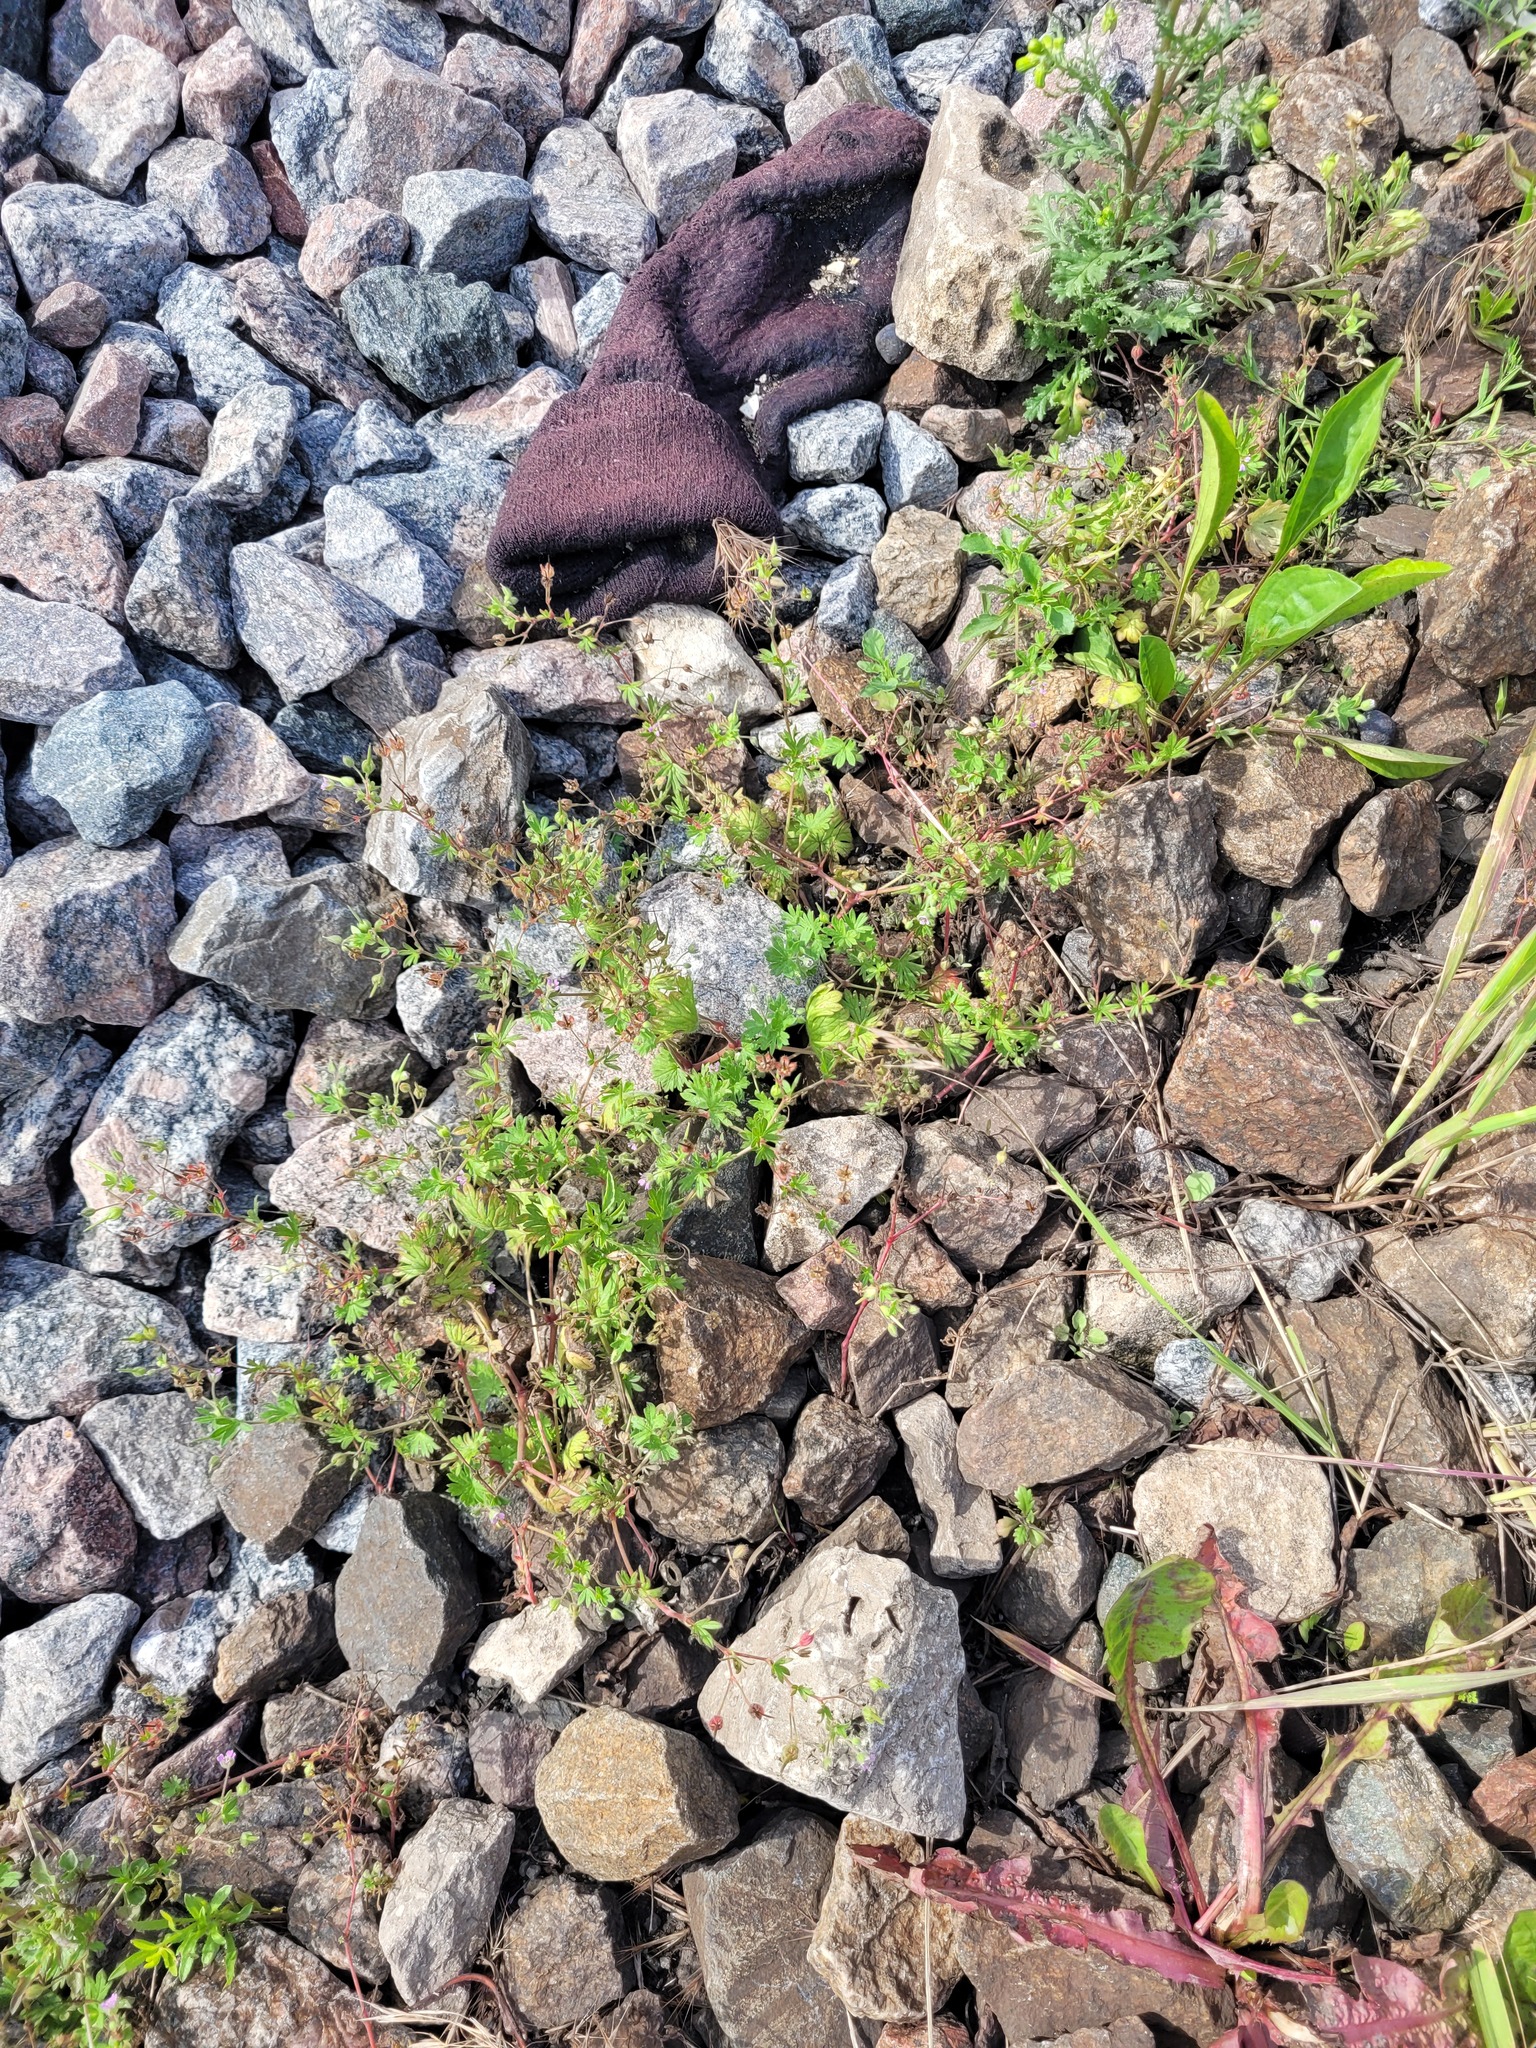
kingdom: Plantae
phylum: Tracheophyta
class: Magnoliopsida
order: Geraniales
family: Geraniaceae
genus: Geranium
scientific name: Geranium pusillum
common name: Small geranium
